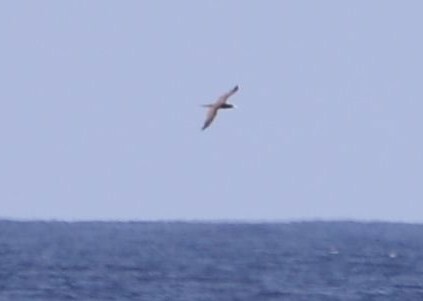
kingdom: Animalia
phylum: Chordata
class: Aves
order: Suliformes
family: Sulidae
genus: Sula
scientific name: Sula leucogaster
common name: Brown booby
